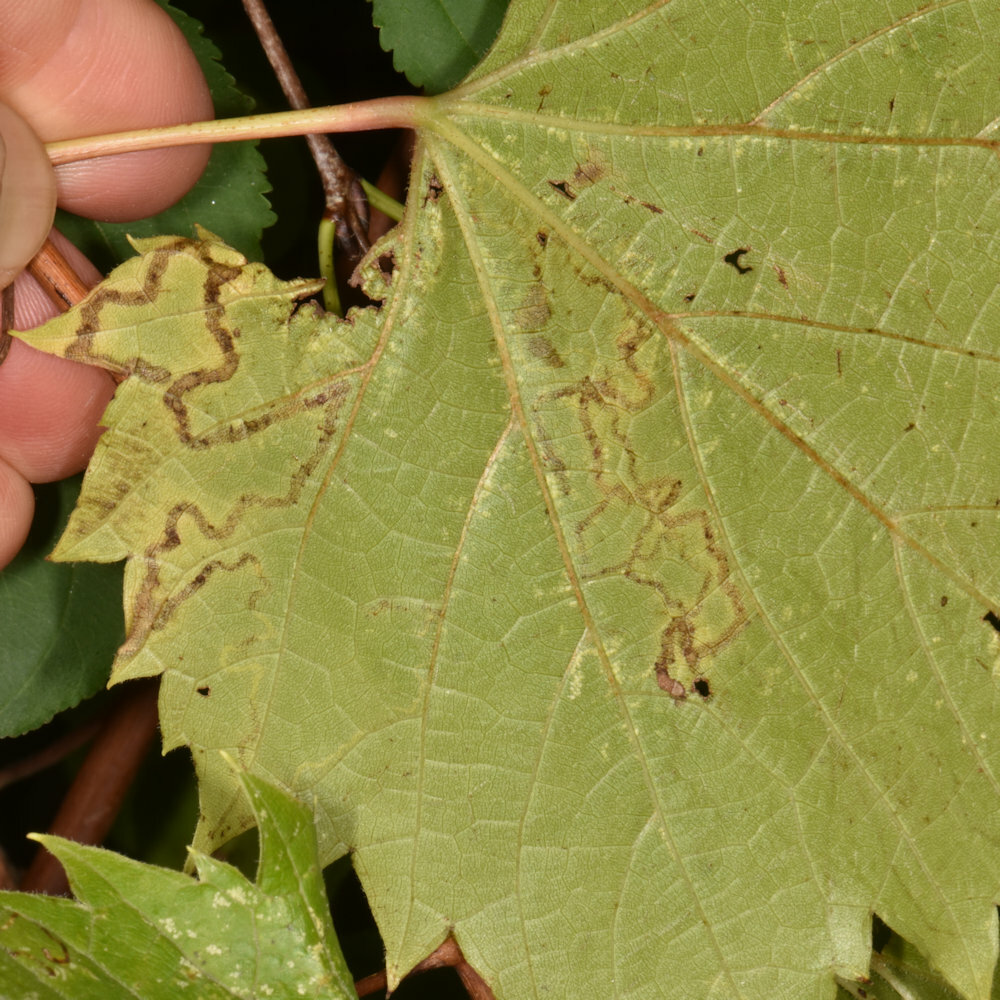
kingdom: Animalia
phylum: Arthropoda
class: Insecta
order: Lepidoptera
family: Gracillariidae
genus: Phyllocnistis
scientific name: Phyllocnistis vitifoliella
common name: Grape leaf-miner moth
